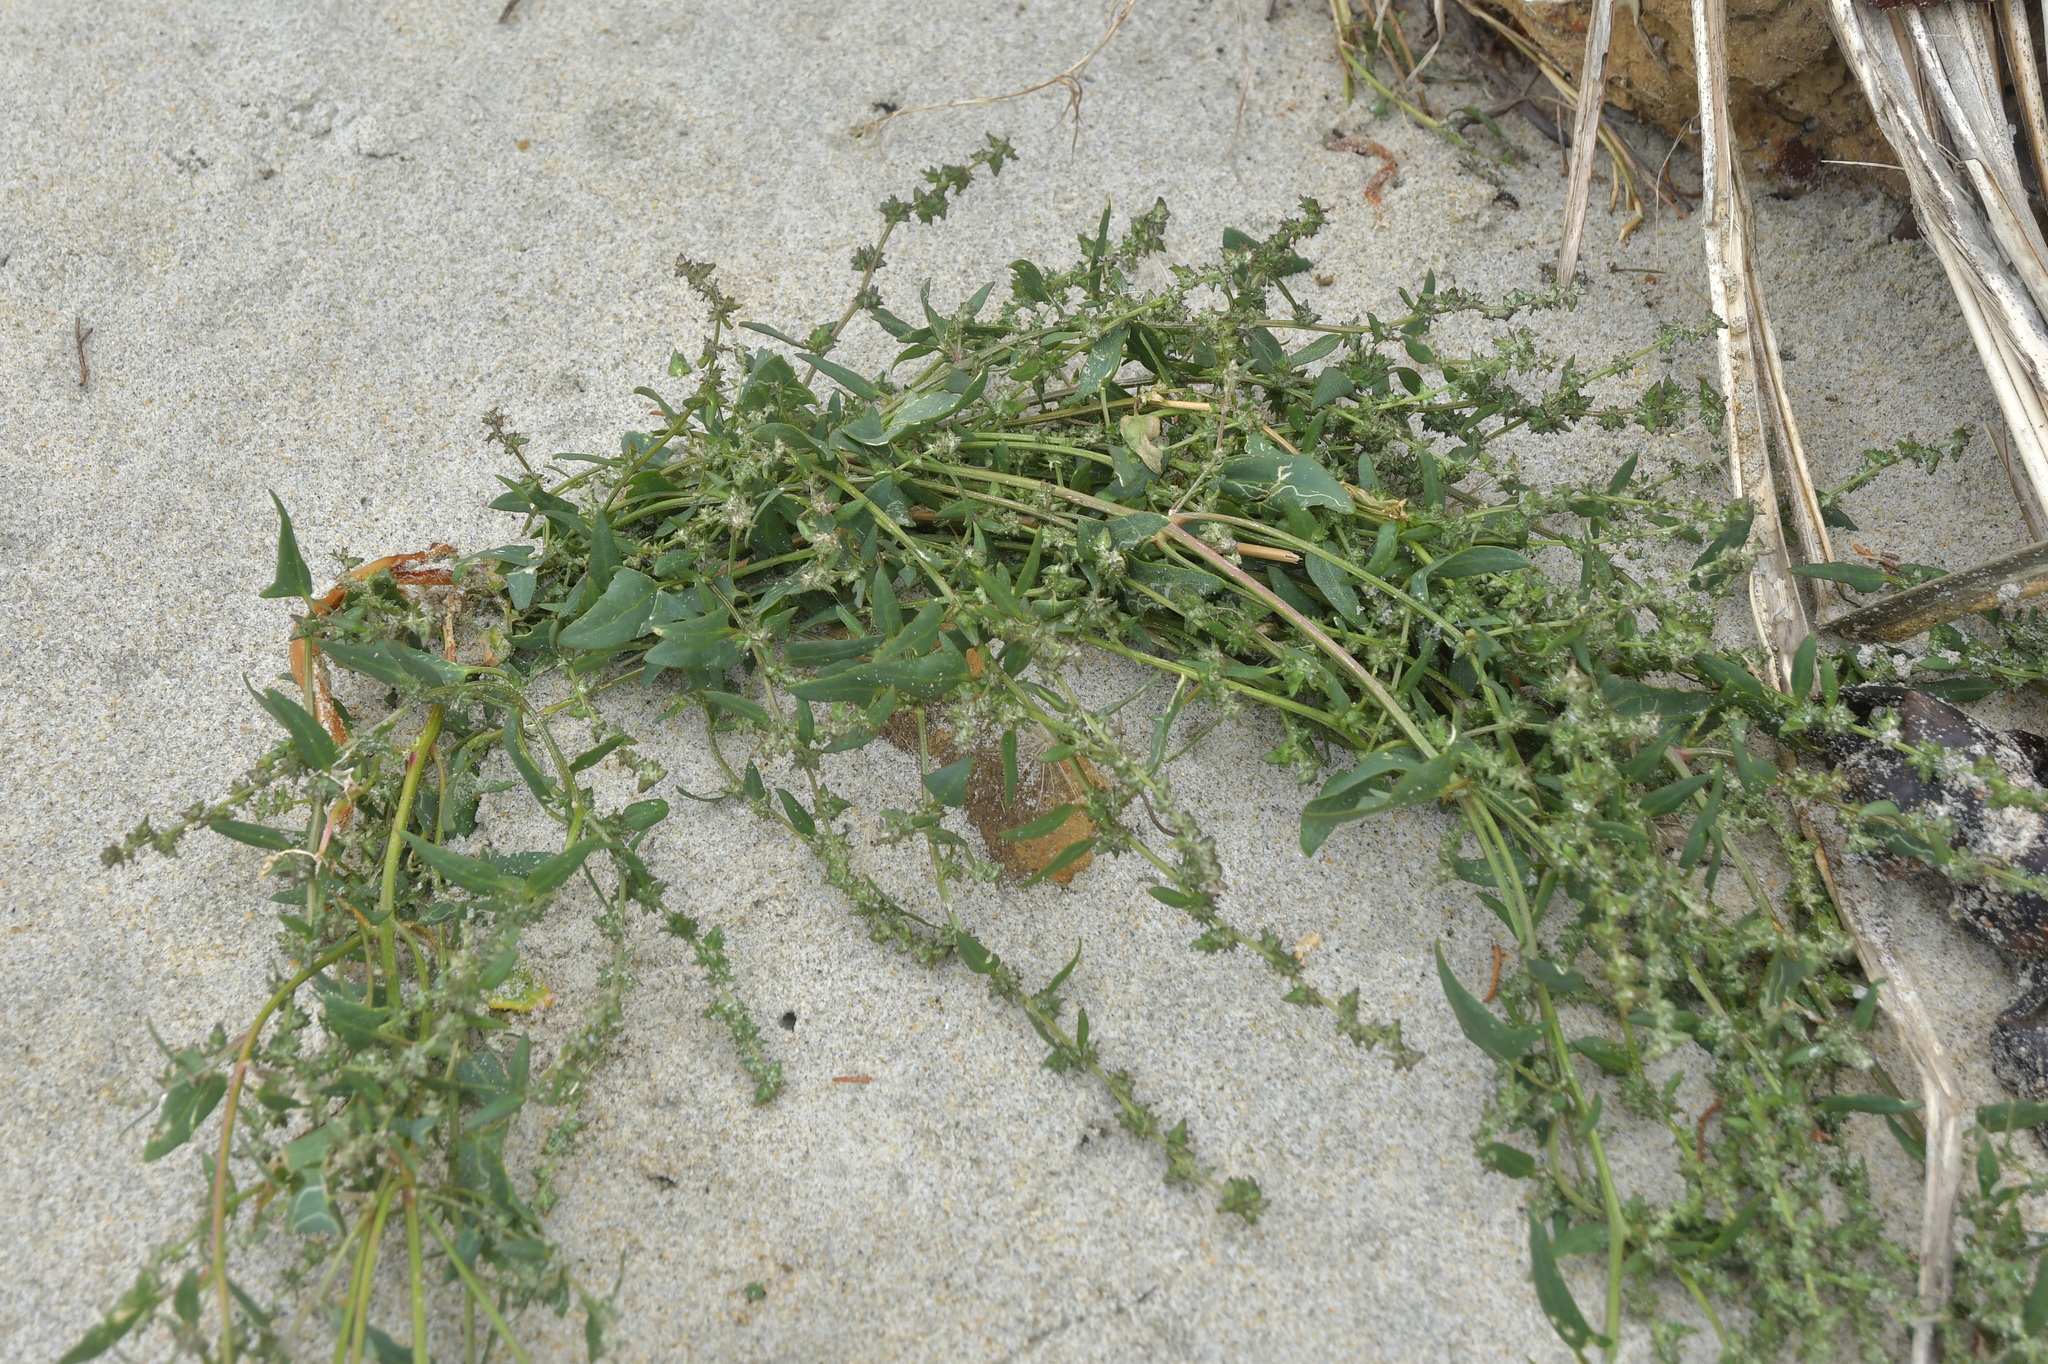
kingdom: Plantae
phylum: Tracheophyta
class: Magnoliopsida
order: Caryophyllales
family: Amaranthaceae
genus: Atriplex
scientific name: Atriplex prostrata
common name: Spear-leaved orache
